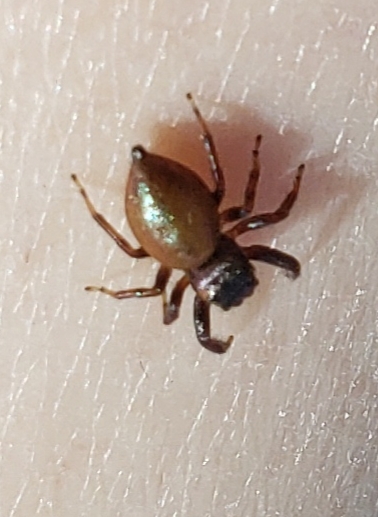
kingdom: Animalia
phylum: Arthropoda
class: Arachnida
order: Araneae
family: Salticidae
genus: Messua
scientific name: Messua limbata
